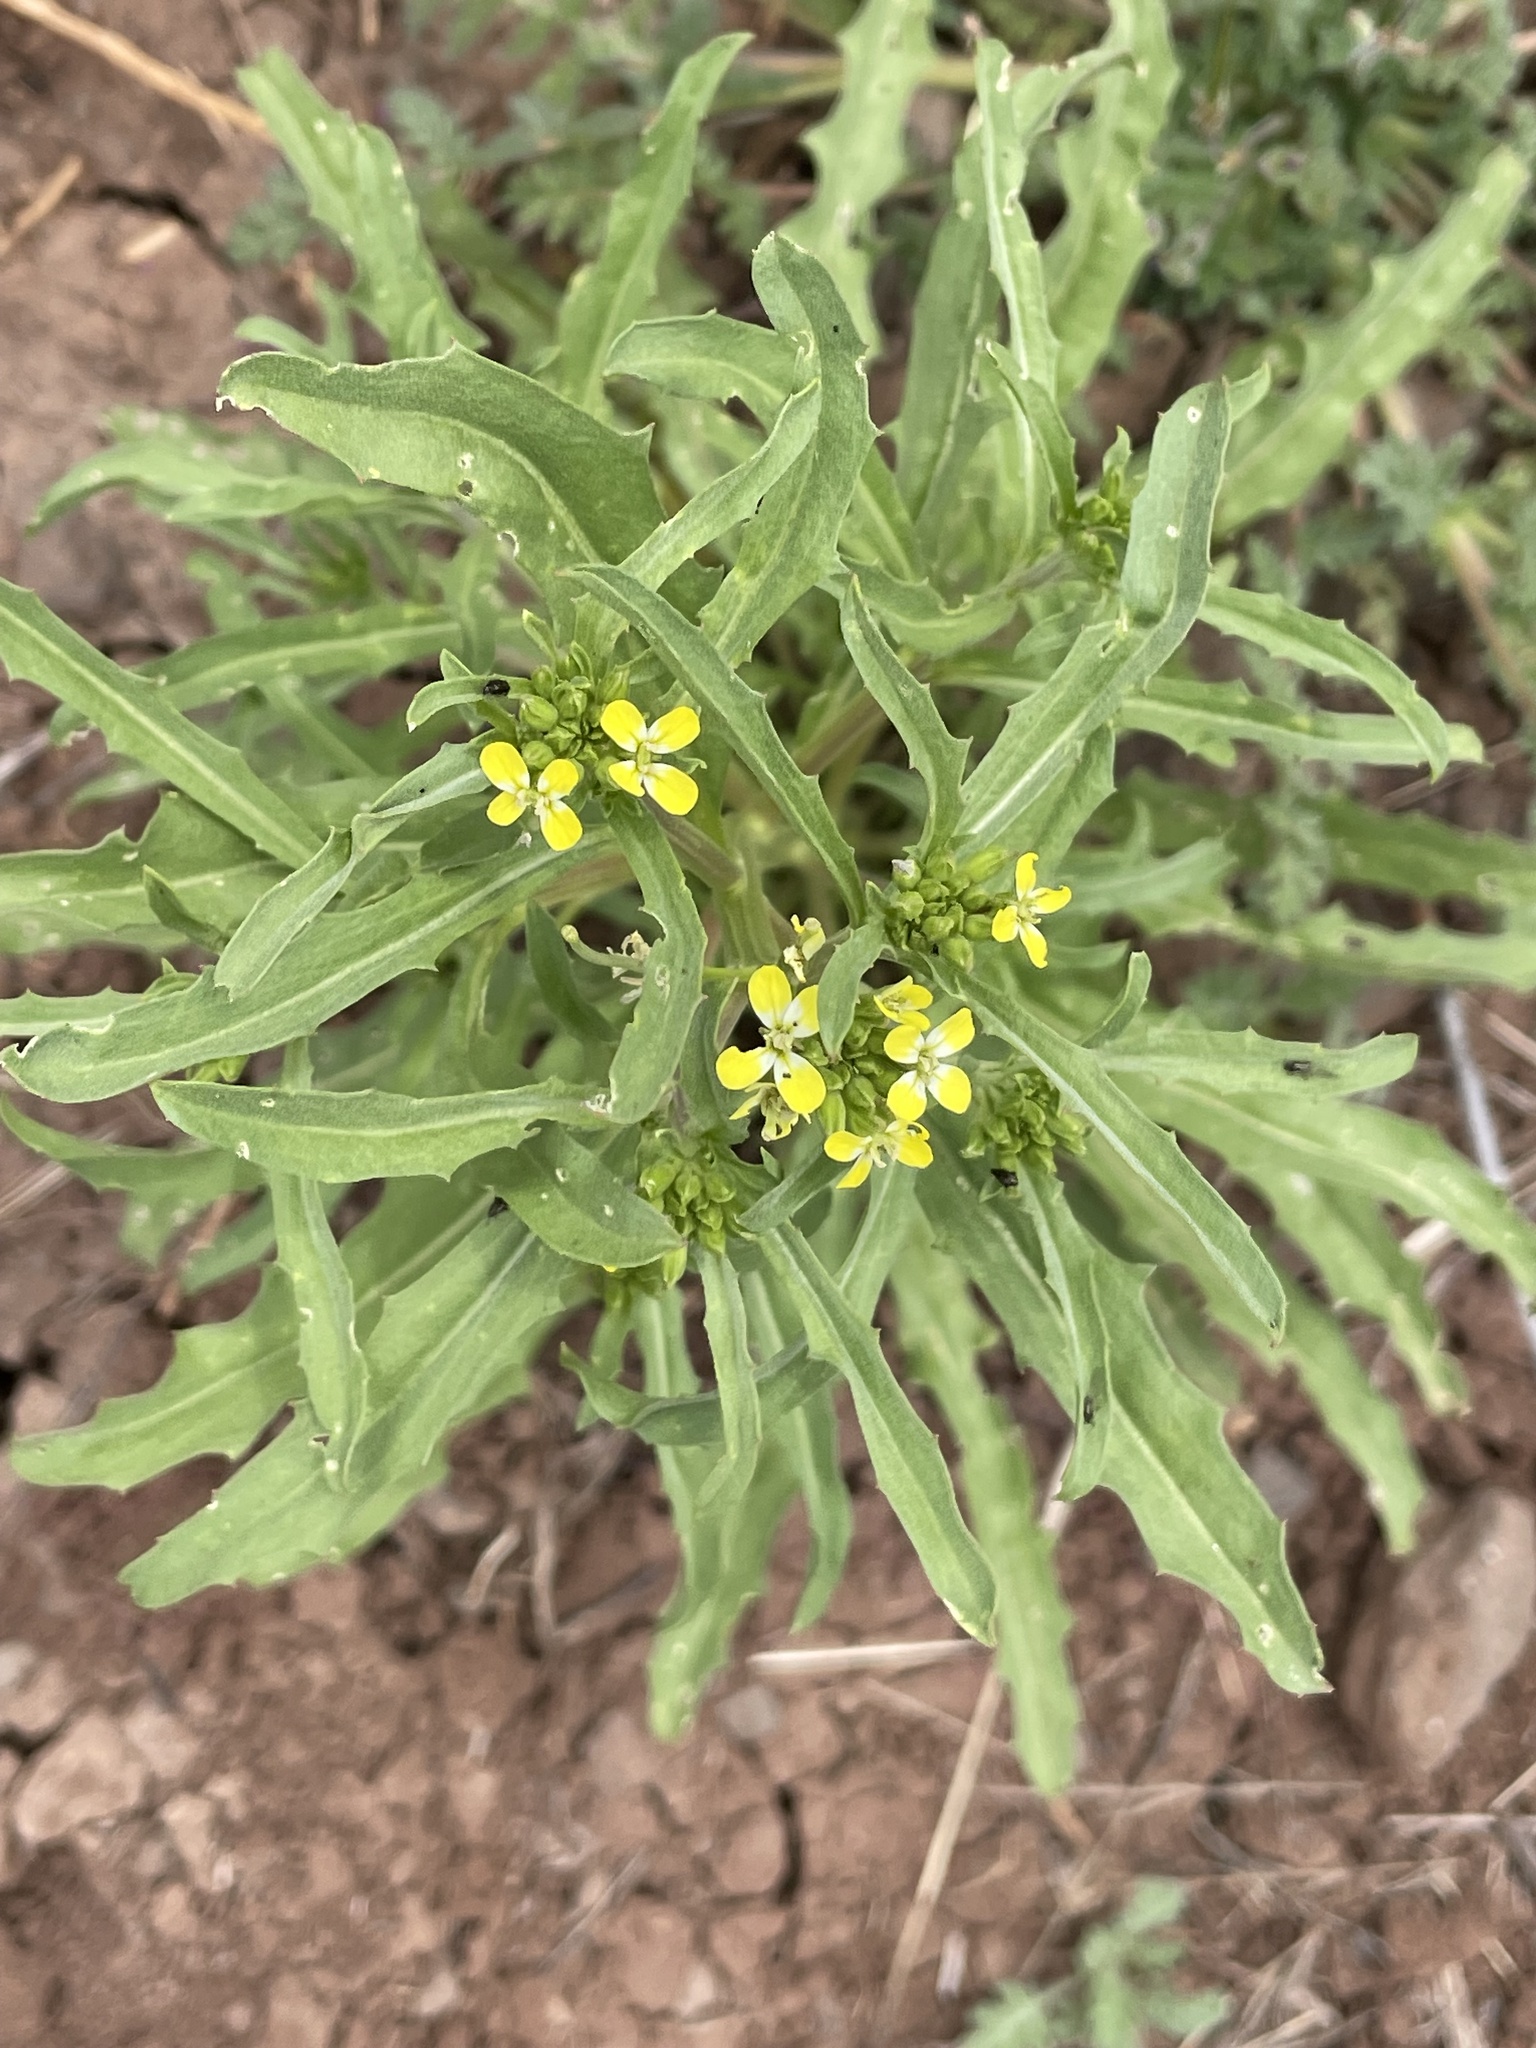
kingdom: Plantae
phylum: Tracheophyta
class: Magnoliopsida
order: Brassicales
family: Brassicaceae
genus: Erysimum
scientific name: Erysimum repandum
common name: Spreading wallflower
